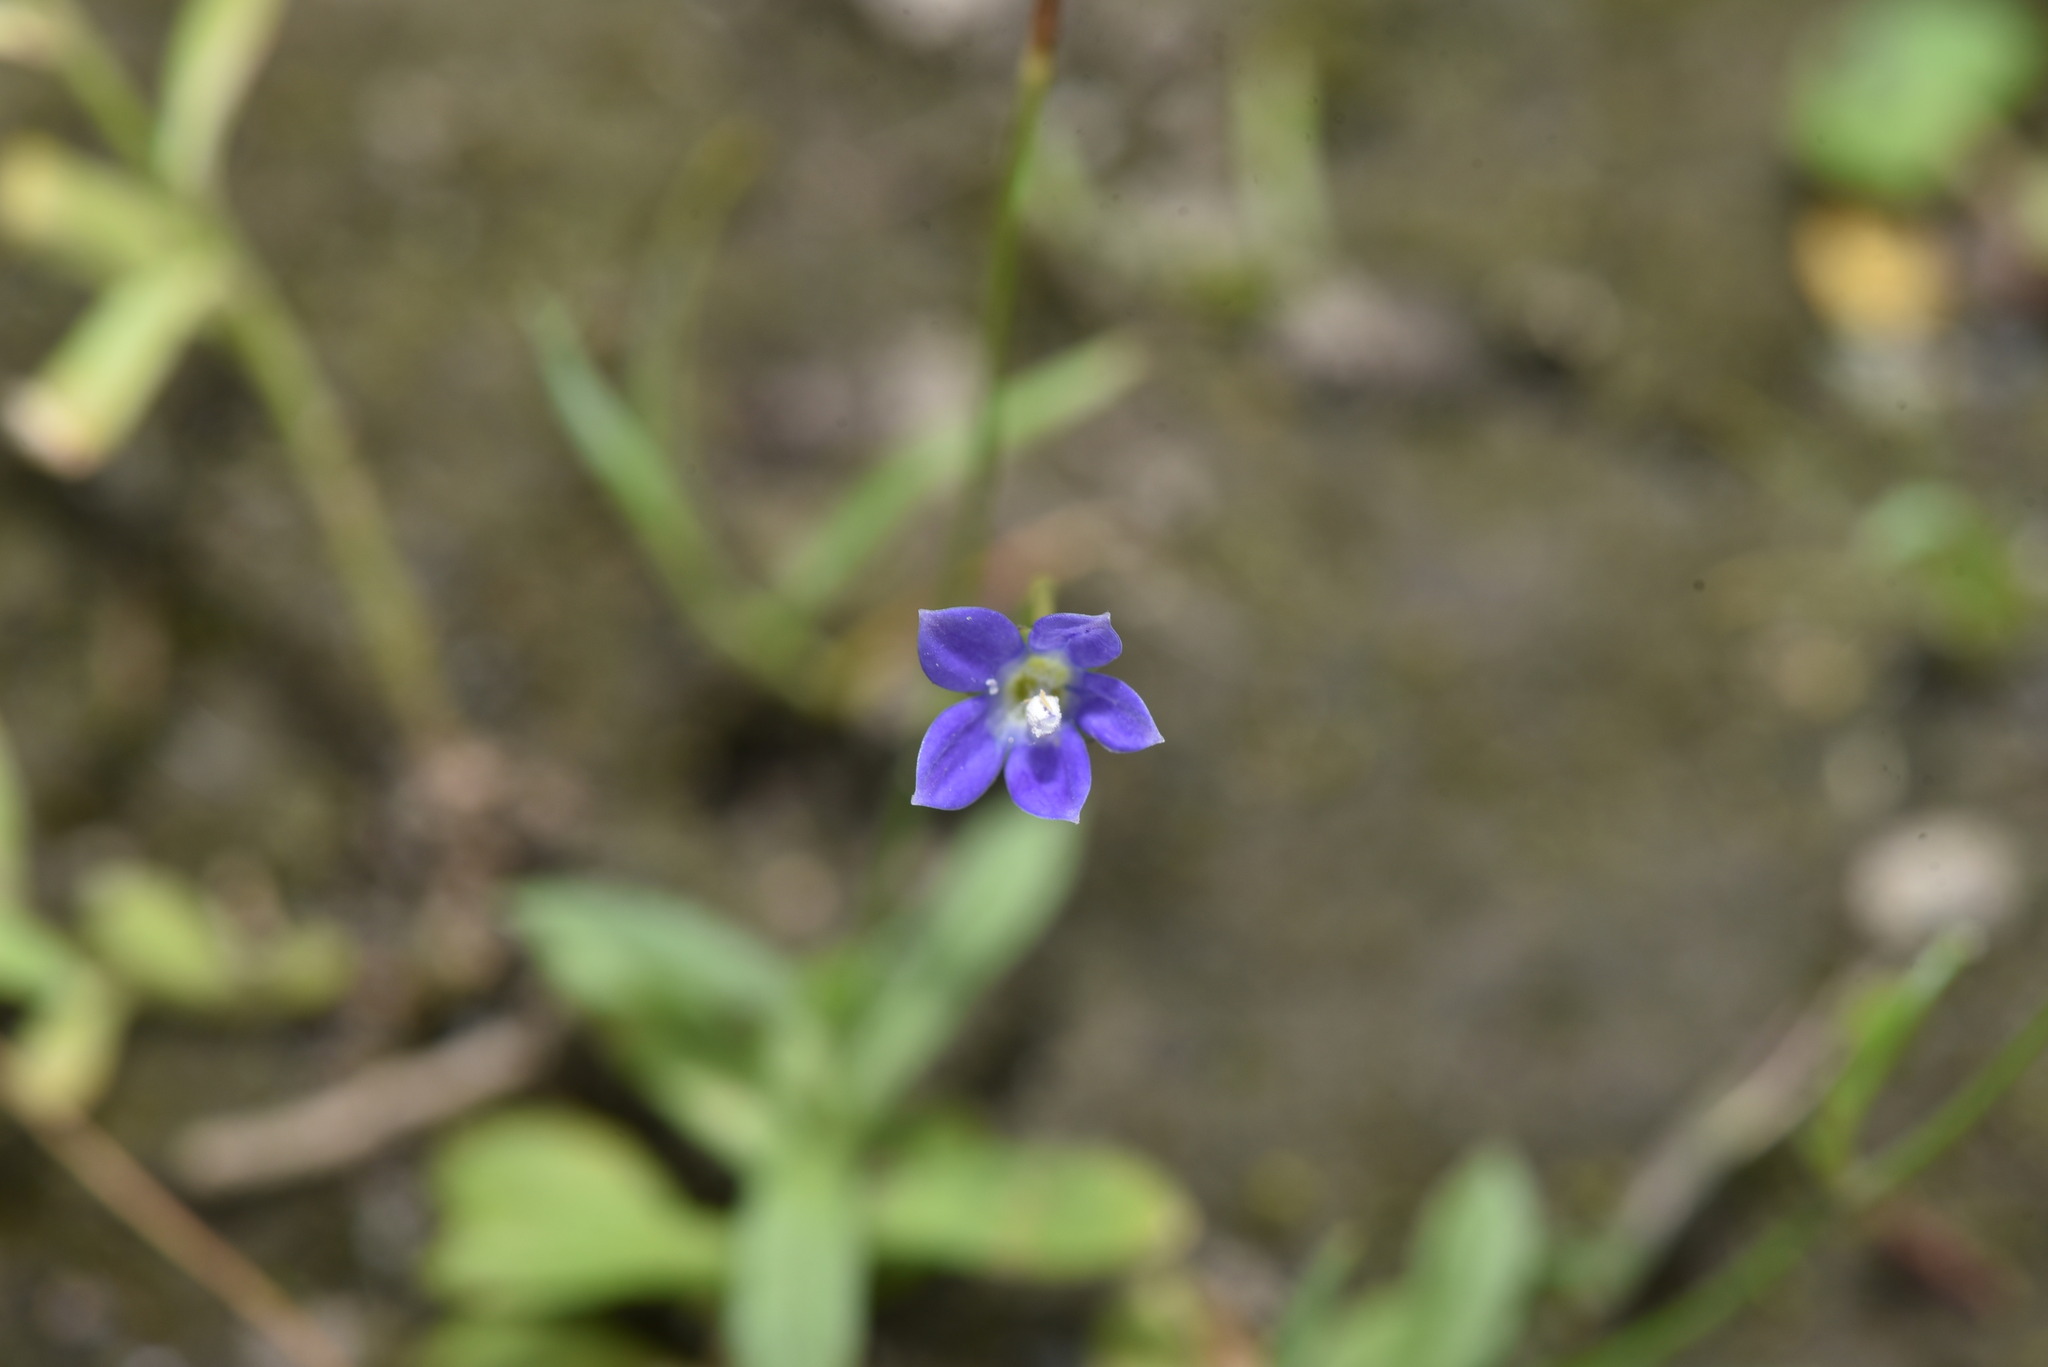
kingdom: Plantae
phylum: Tracheophyta
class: Magnoliopsida
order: Asterales
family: Campanulaceae
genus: Wahlenbergia
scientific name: Wahlenbergia marginata
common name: Southern rockbell
